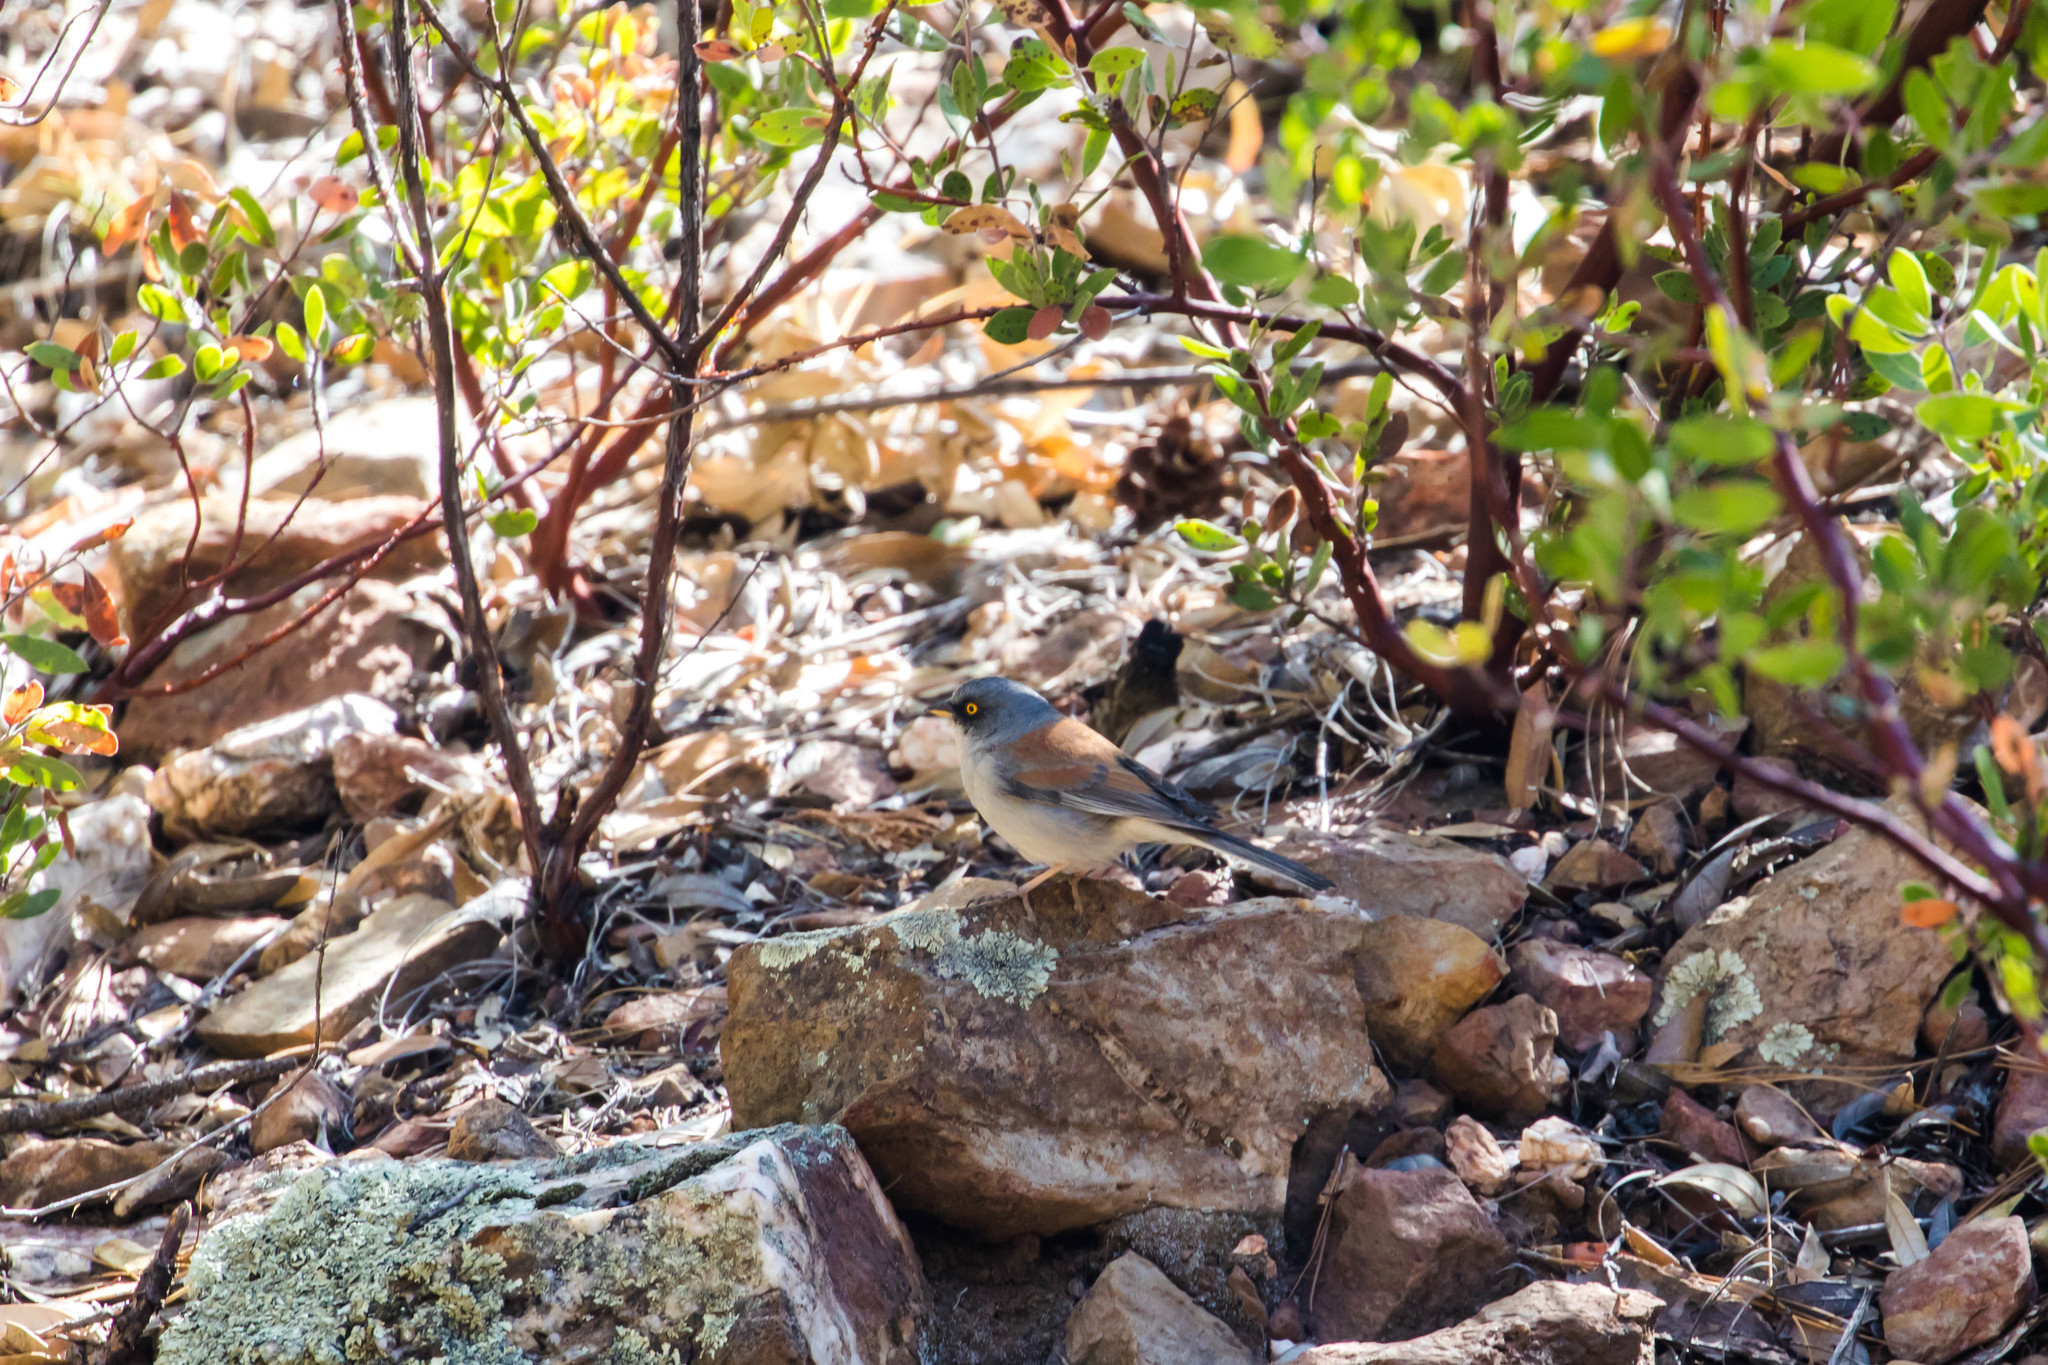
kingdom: Animalia
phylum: Chordata
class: Aves
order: Passeriformes
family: Passerellidae
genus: Junco
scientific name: Junco phaeonotus
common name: Yellow-eyed junco
